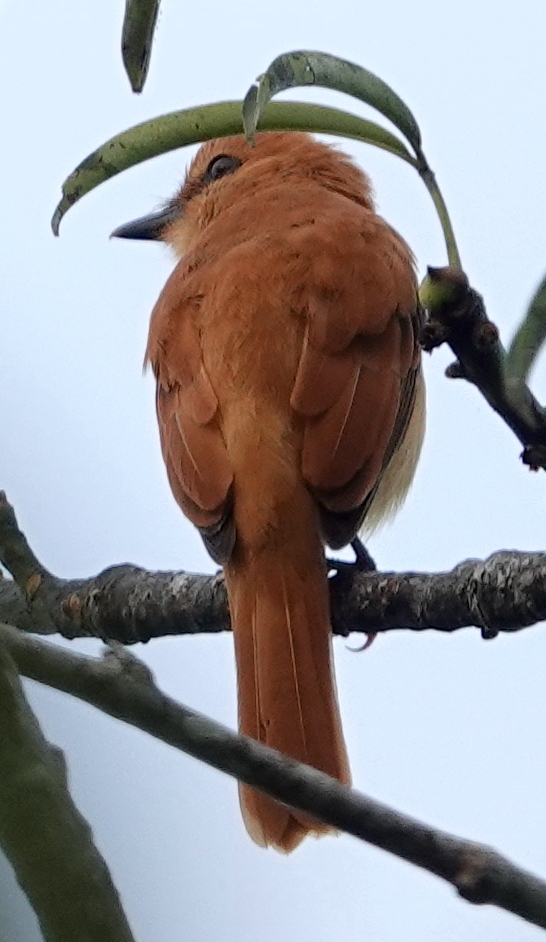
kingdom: Animalia
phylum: Chordata
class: Aves
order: Passeriformes
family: Tyrannidae
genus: Attila
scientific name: Attila cinnamomeus
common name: Cinnamon attila
